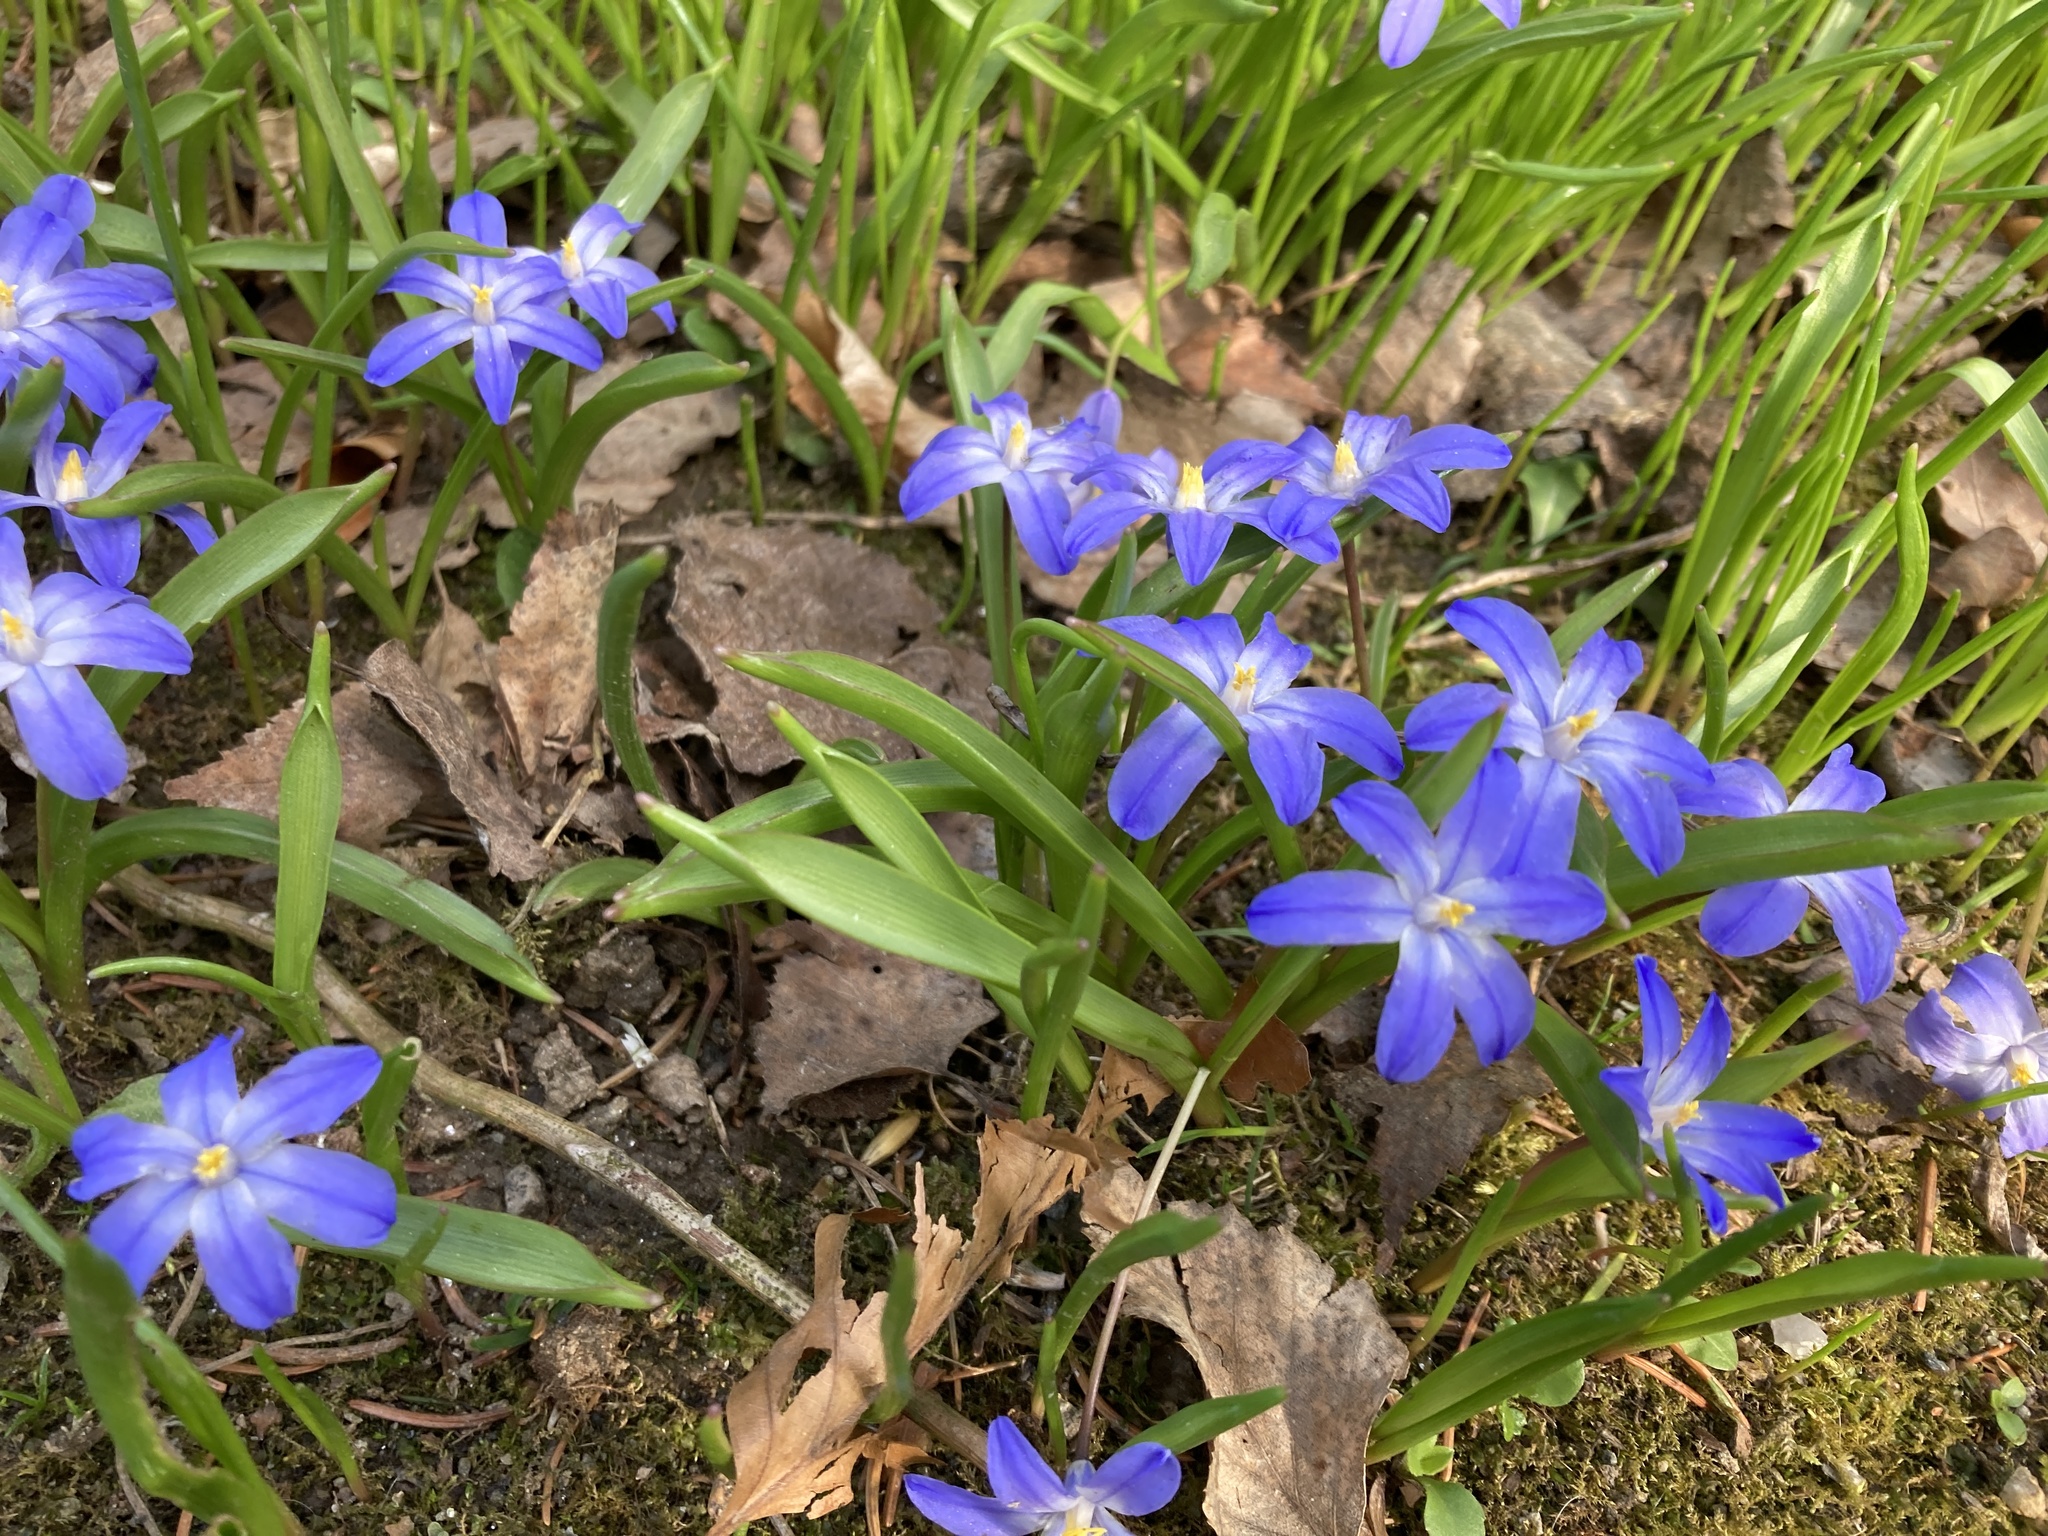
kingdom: Plantae
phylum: Tracheophyta
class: Liliopsida
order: Asparagales
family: Asparagaceae
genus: Scilla
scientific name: Scilla luciliae
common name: Boissier's glory-of-the-snow
